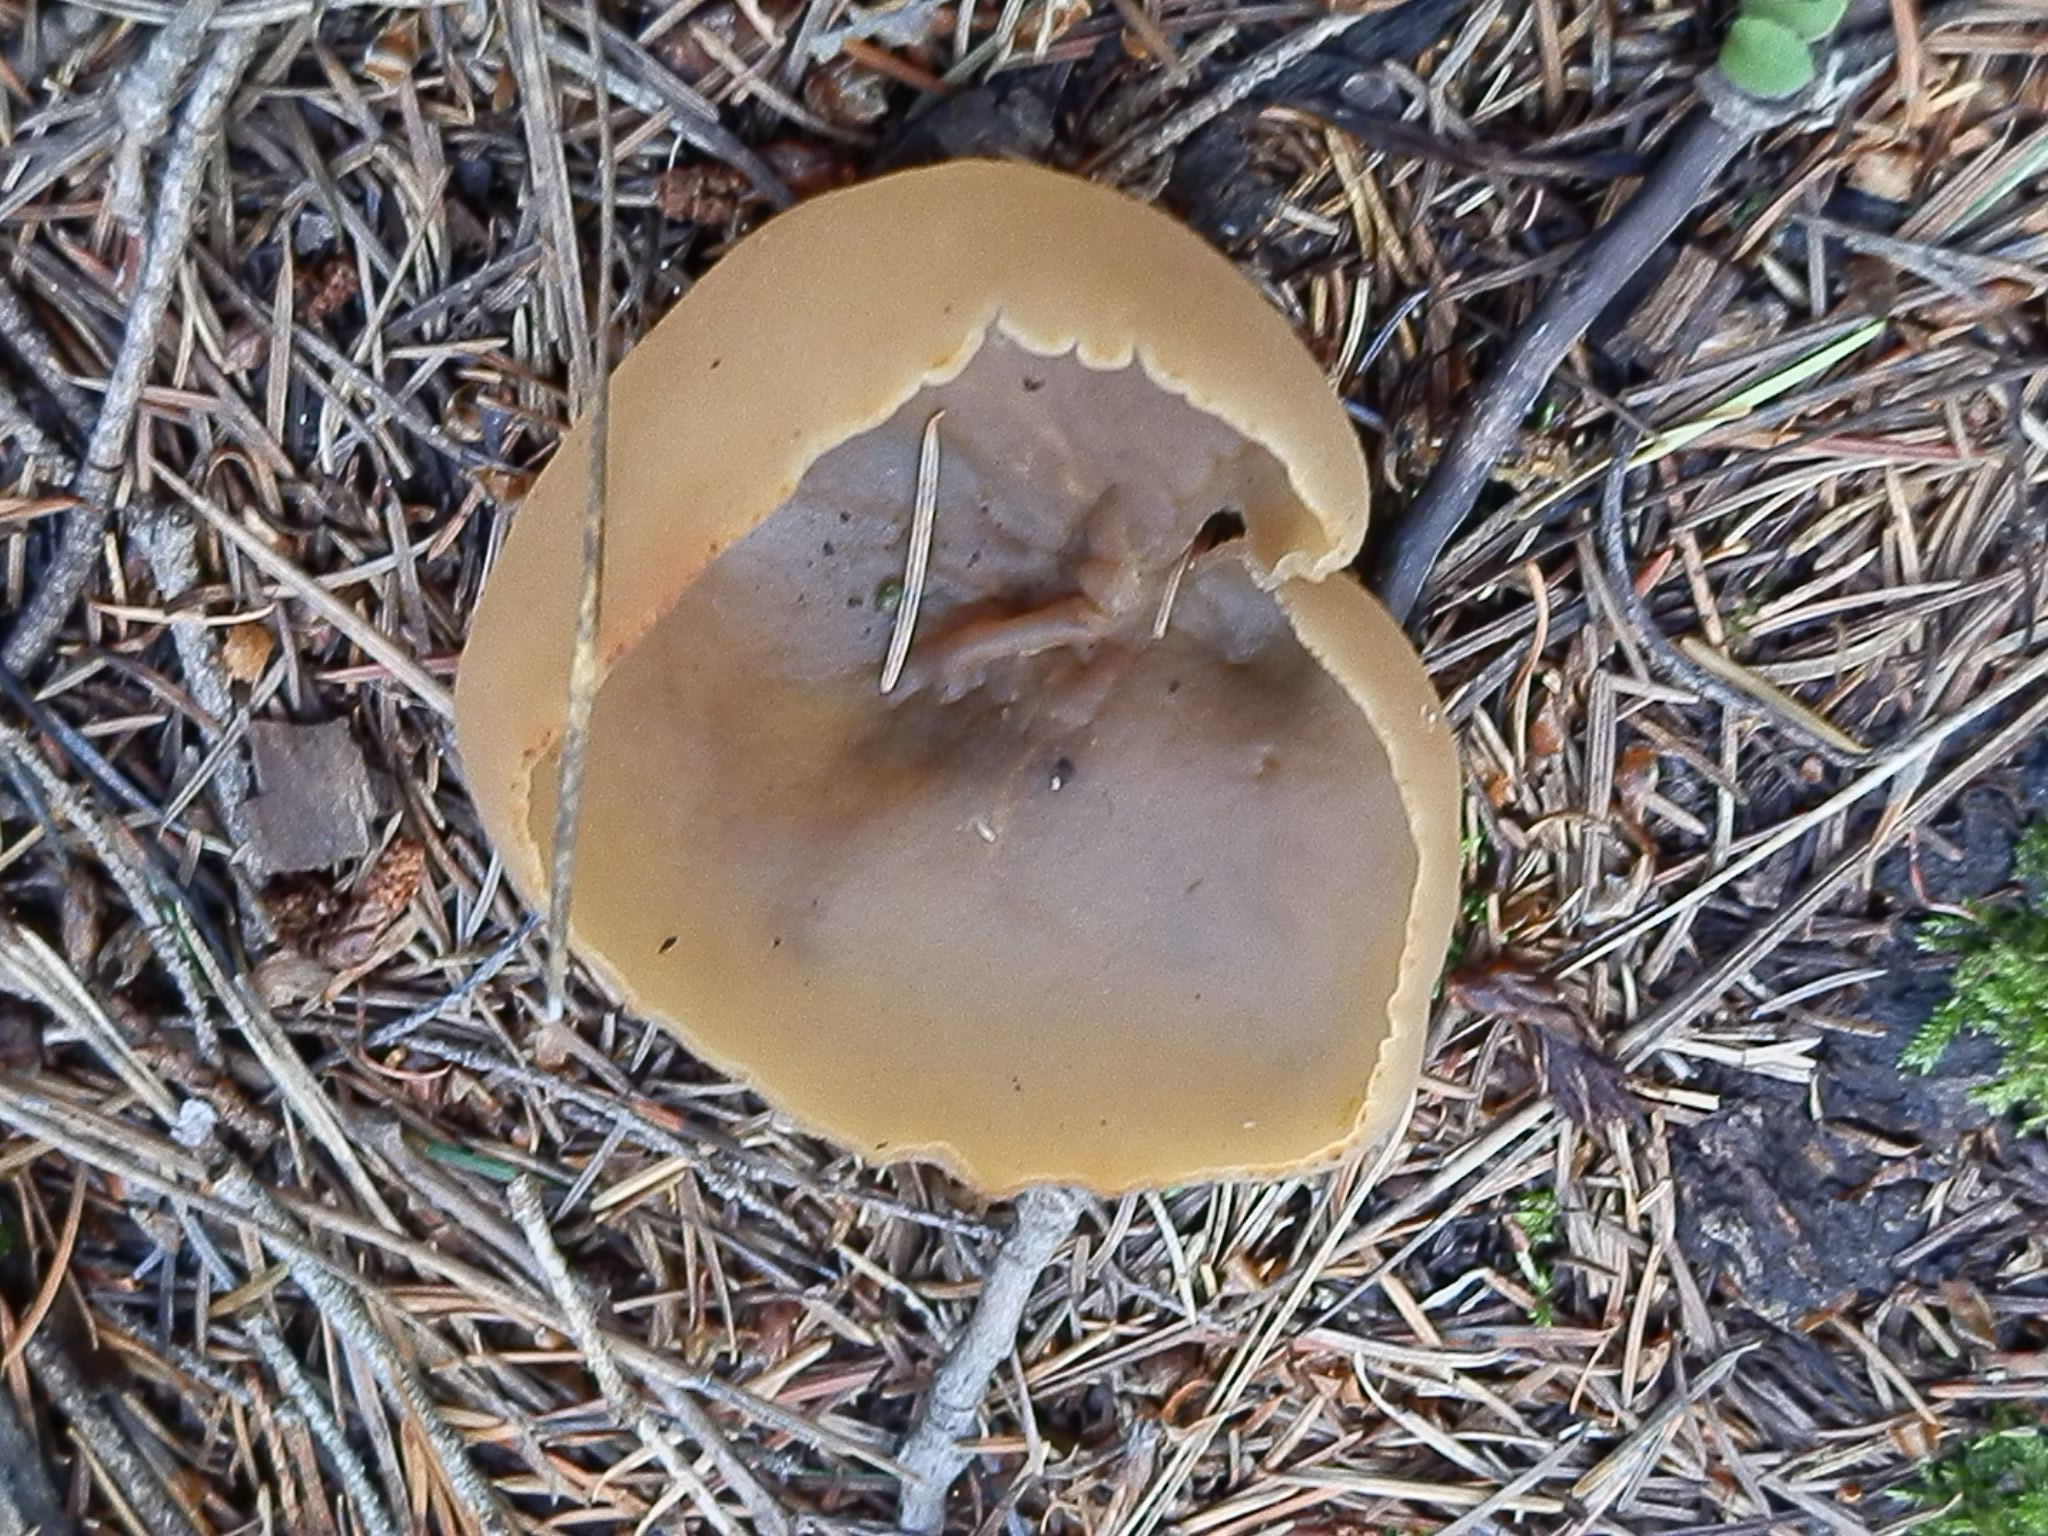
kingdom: Fungi
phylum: Ascomycota
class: Pezizomycetes
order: Pezizales
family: Pezizaceae
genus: Peziza
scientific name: Peziza varia
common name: Layered cup
